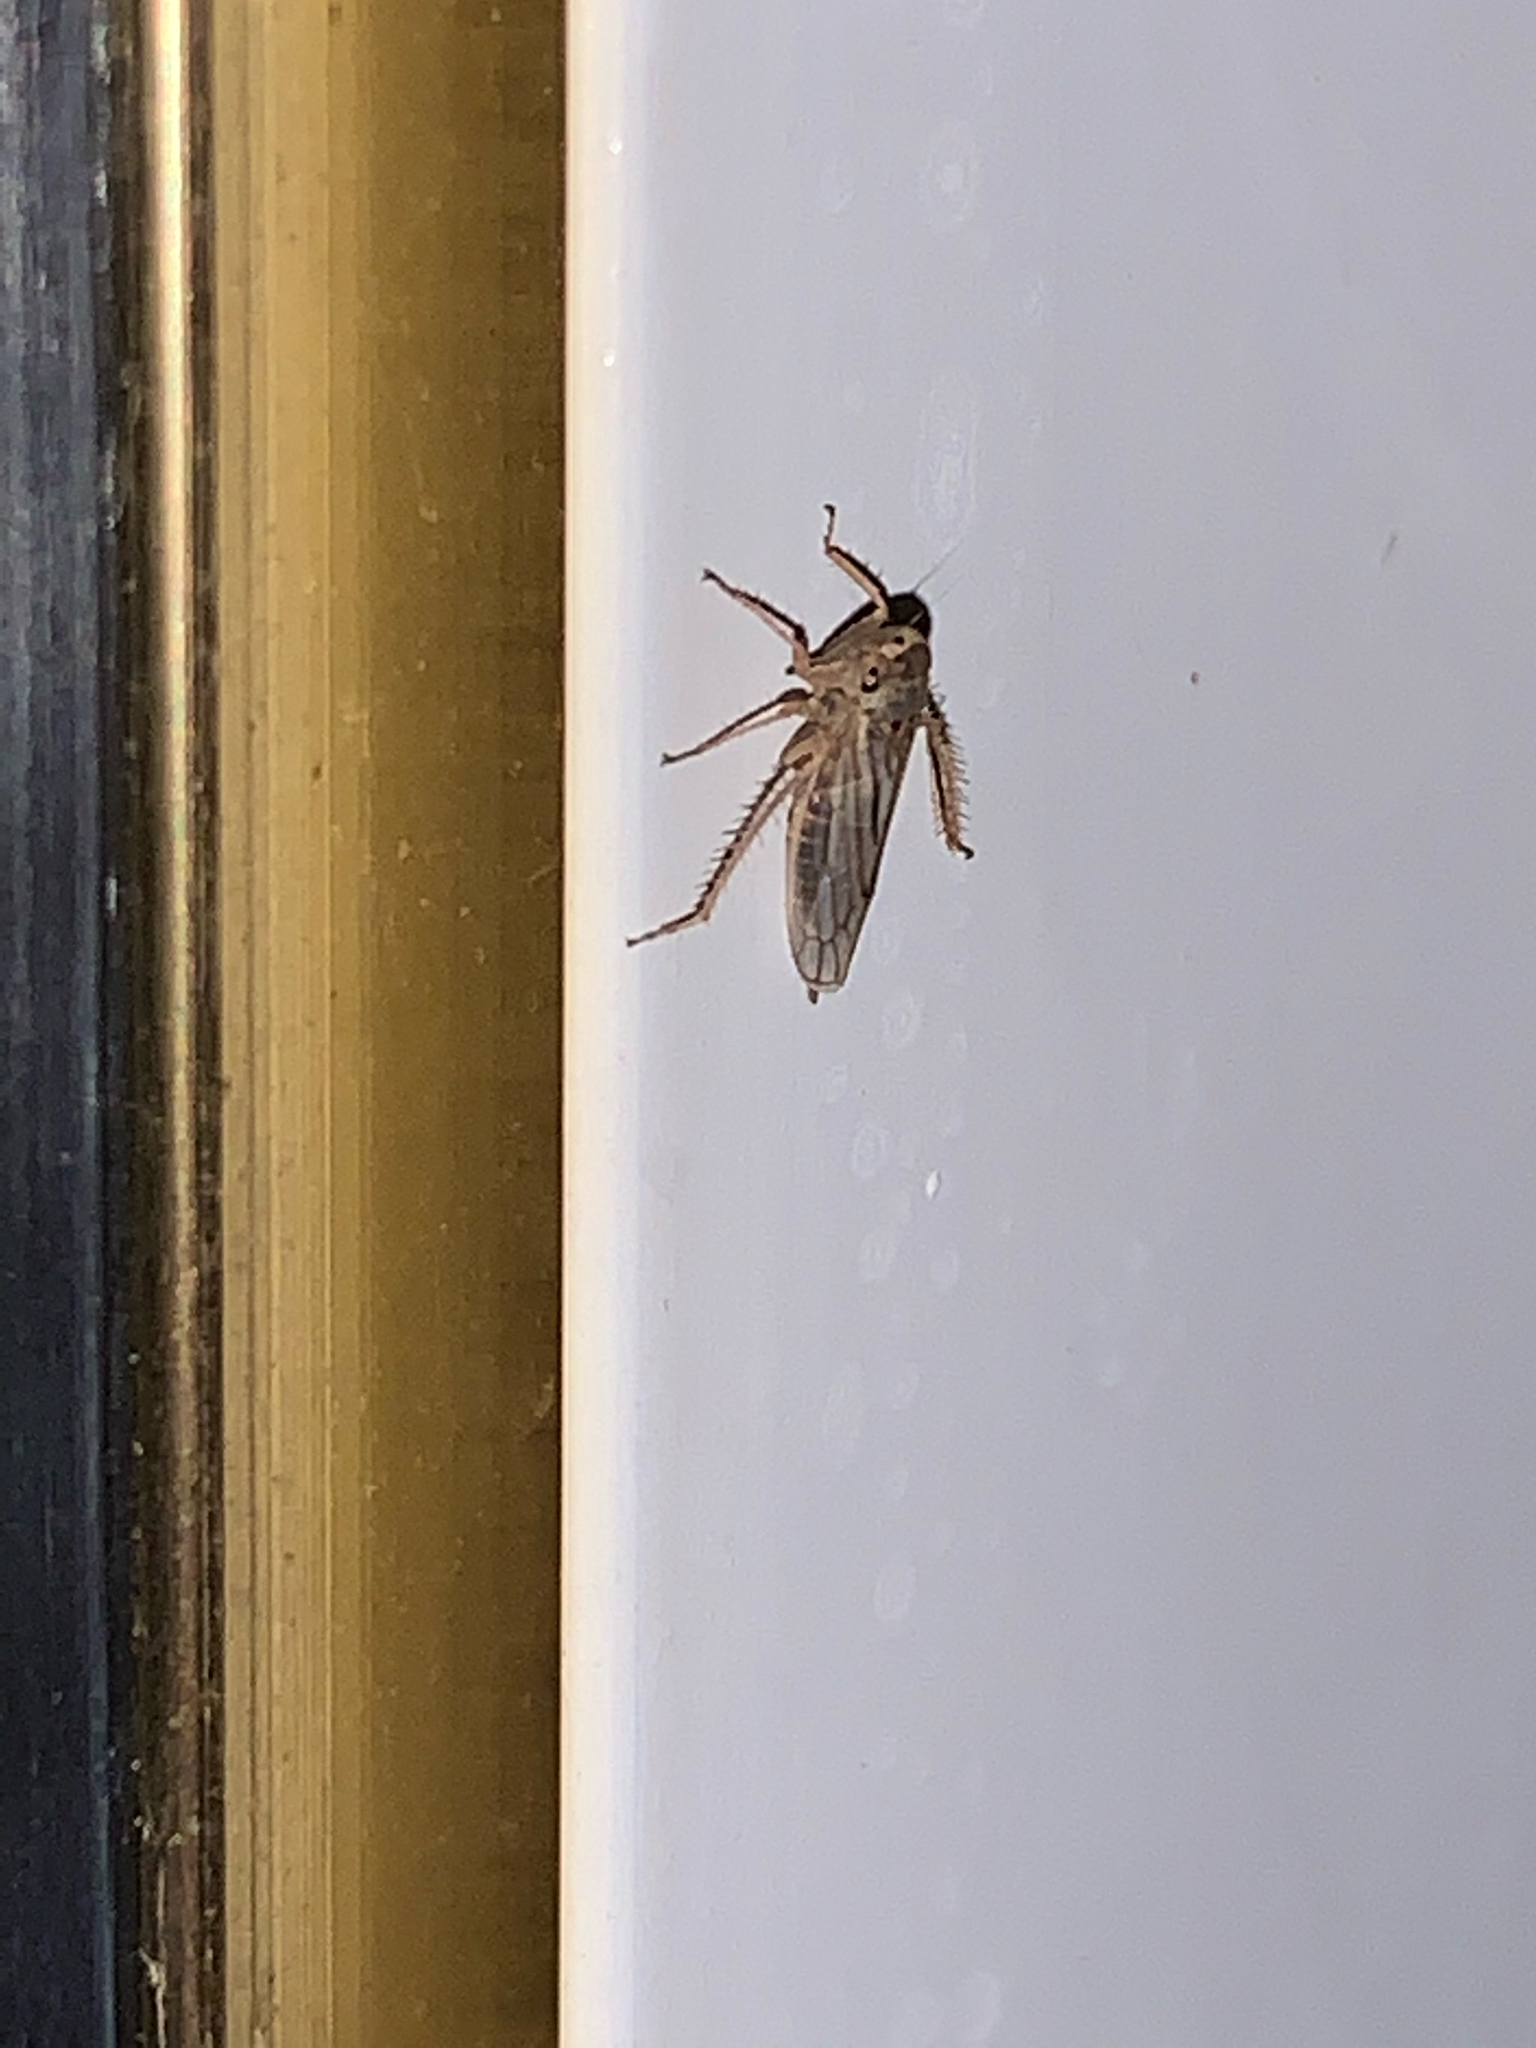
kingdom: Animalia
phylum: Arthropoda
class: Insecta
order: Hemiptera
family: Cicadellidae
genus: Exitianus
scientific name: Exitianus exitiosus
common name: Gray lawn leafhopper
